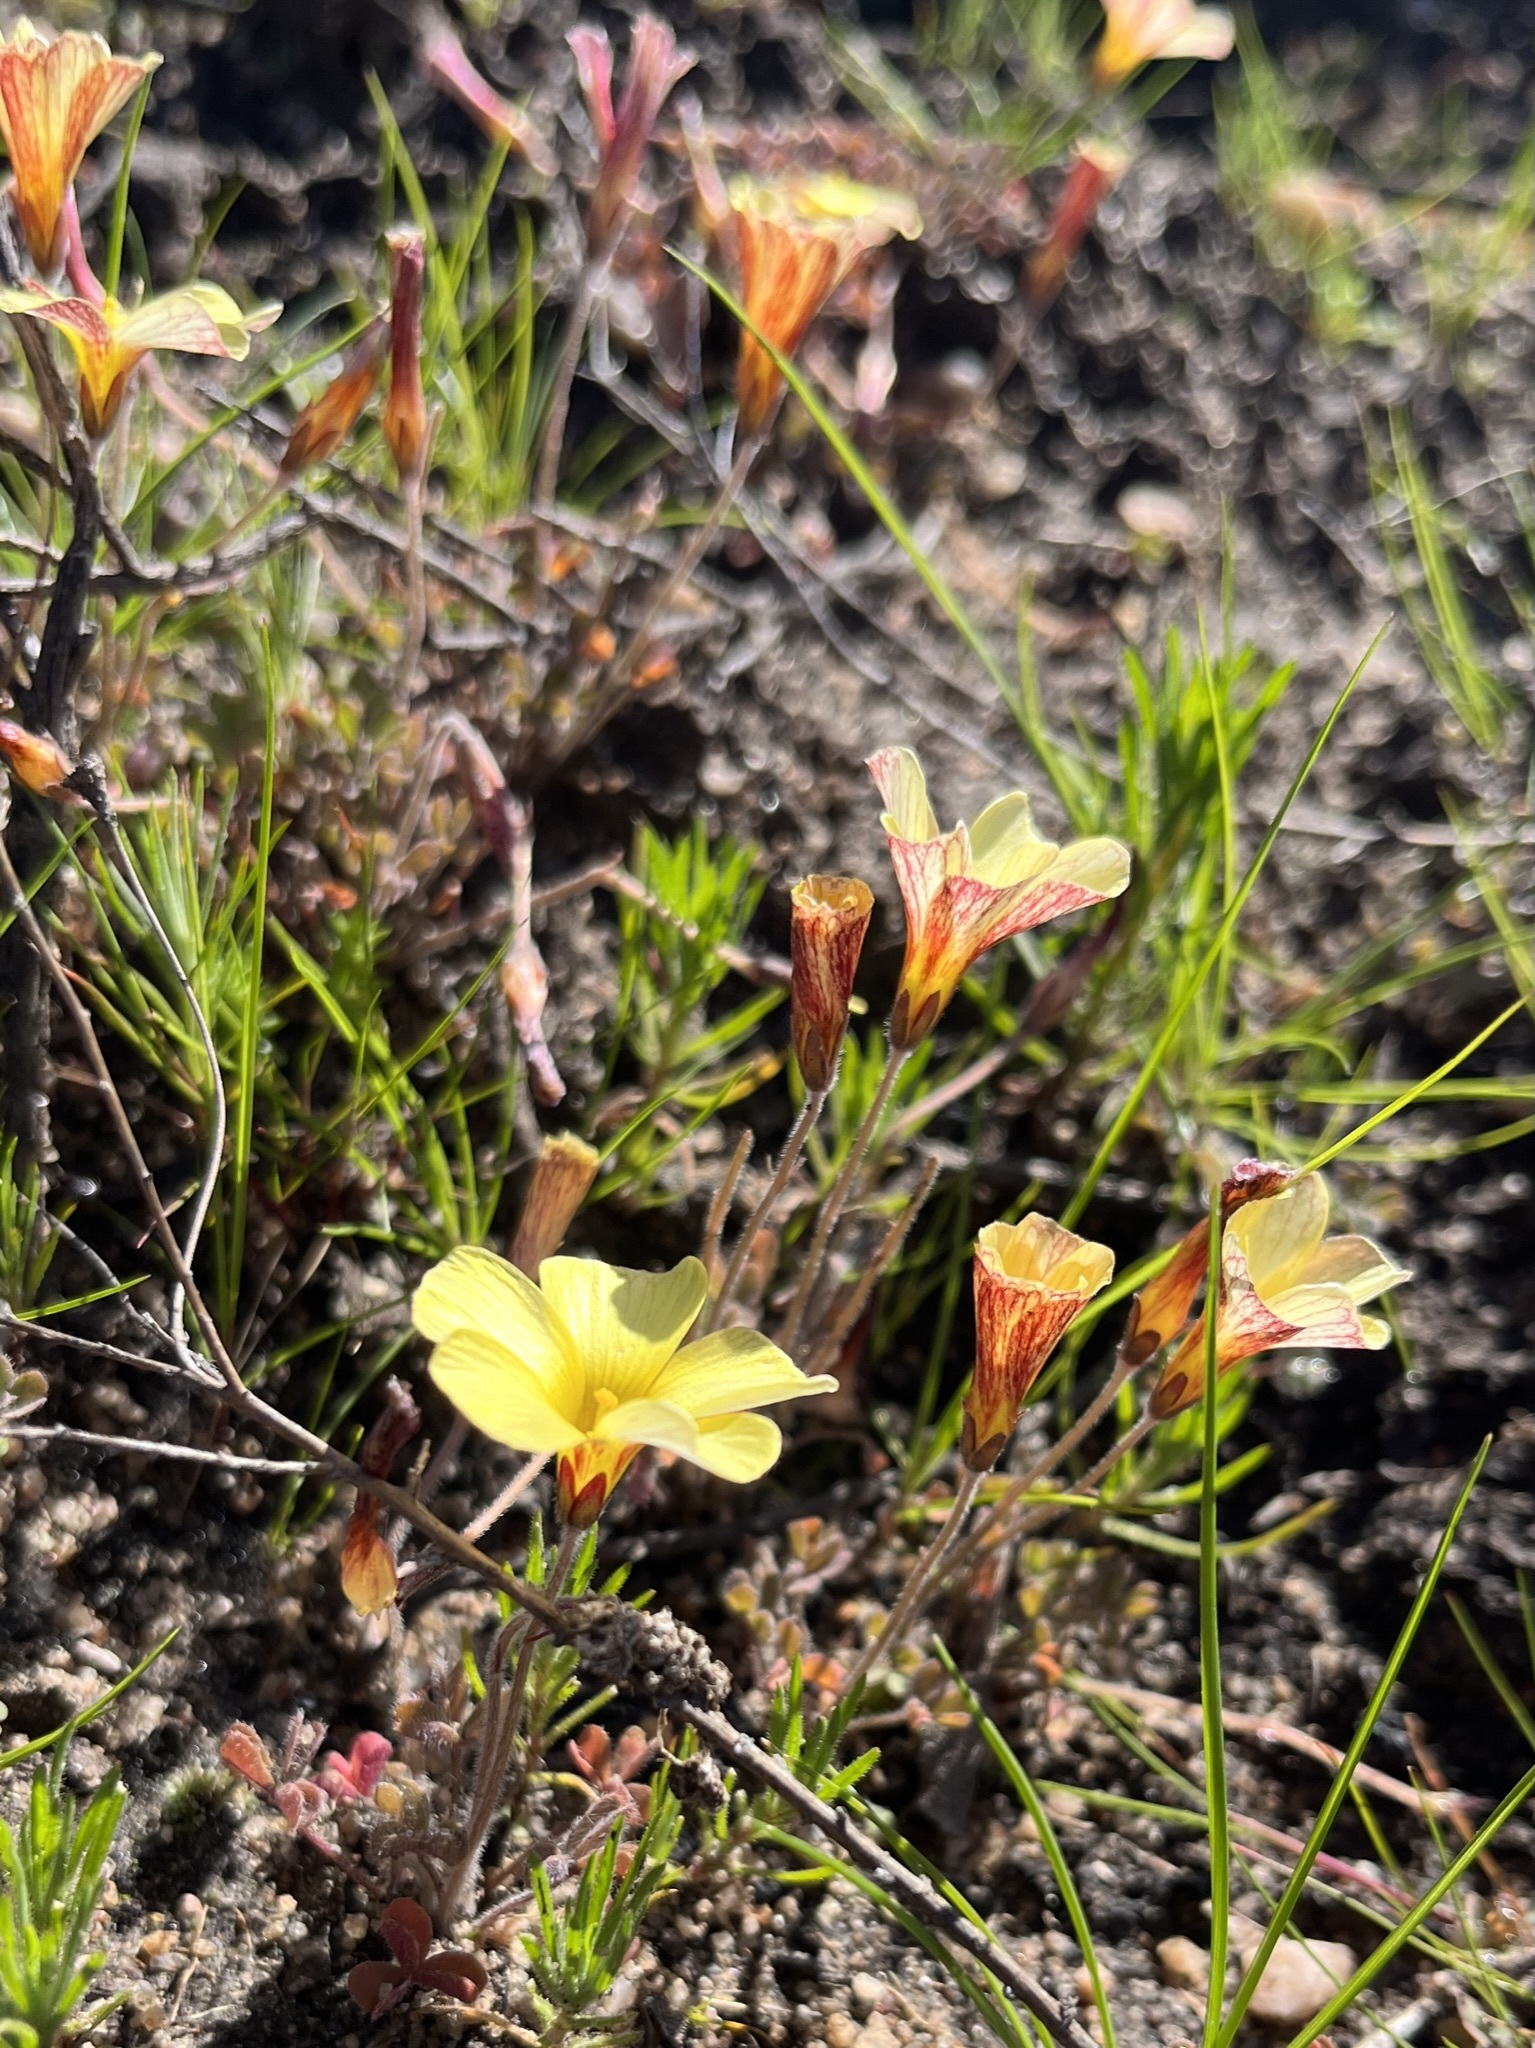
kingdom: Plantae
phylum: Tracheophyta
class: Magnoliopsida
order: Oxalidales
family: Oxalidaceae
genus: Oxalis
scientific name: Oxalis obtusa
